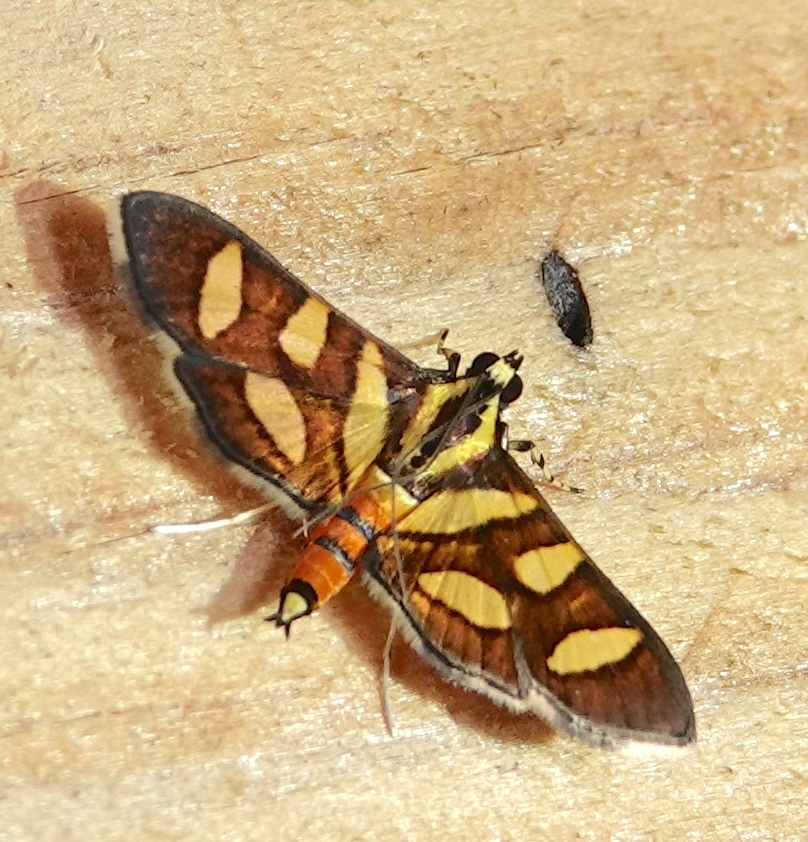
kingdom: Animalia
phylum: Arthropoda
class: Insecta
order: Lepidoptera
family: Crambidae
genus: Syngamia
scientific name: Syngamia florella
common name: Orange-spotted flower moth
